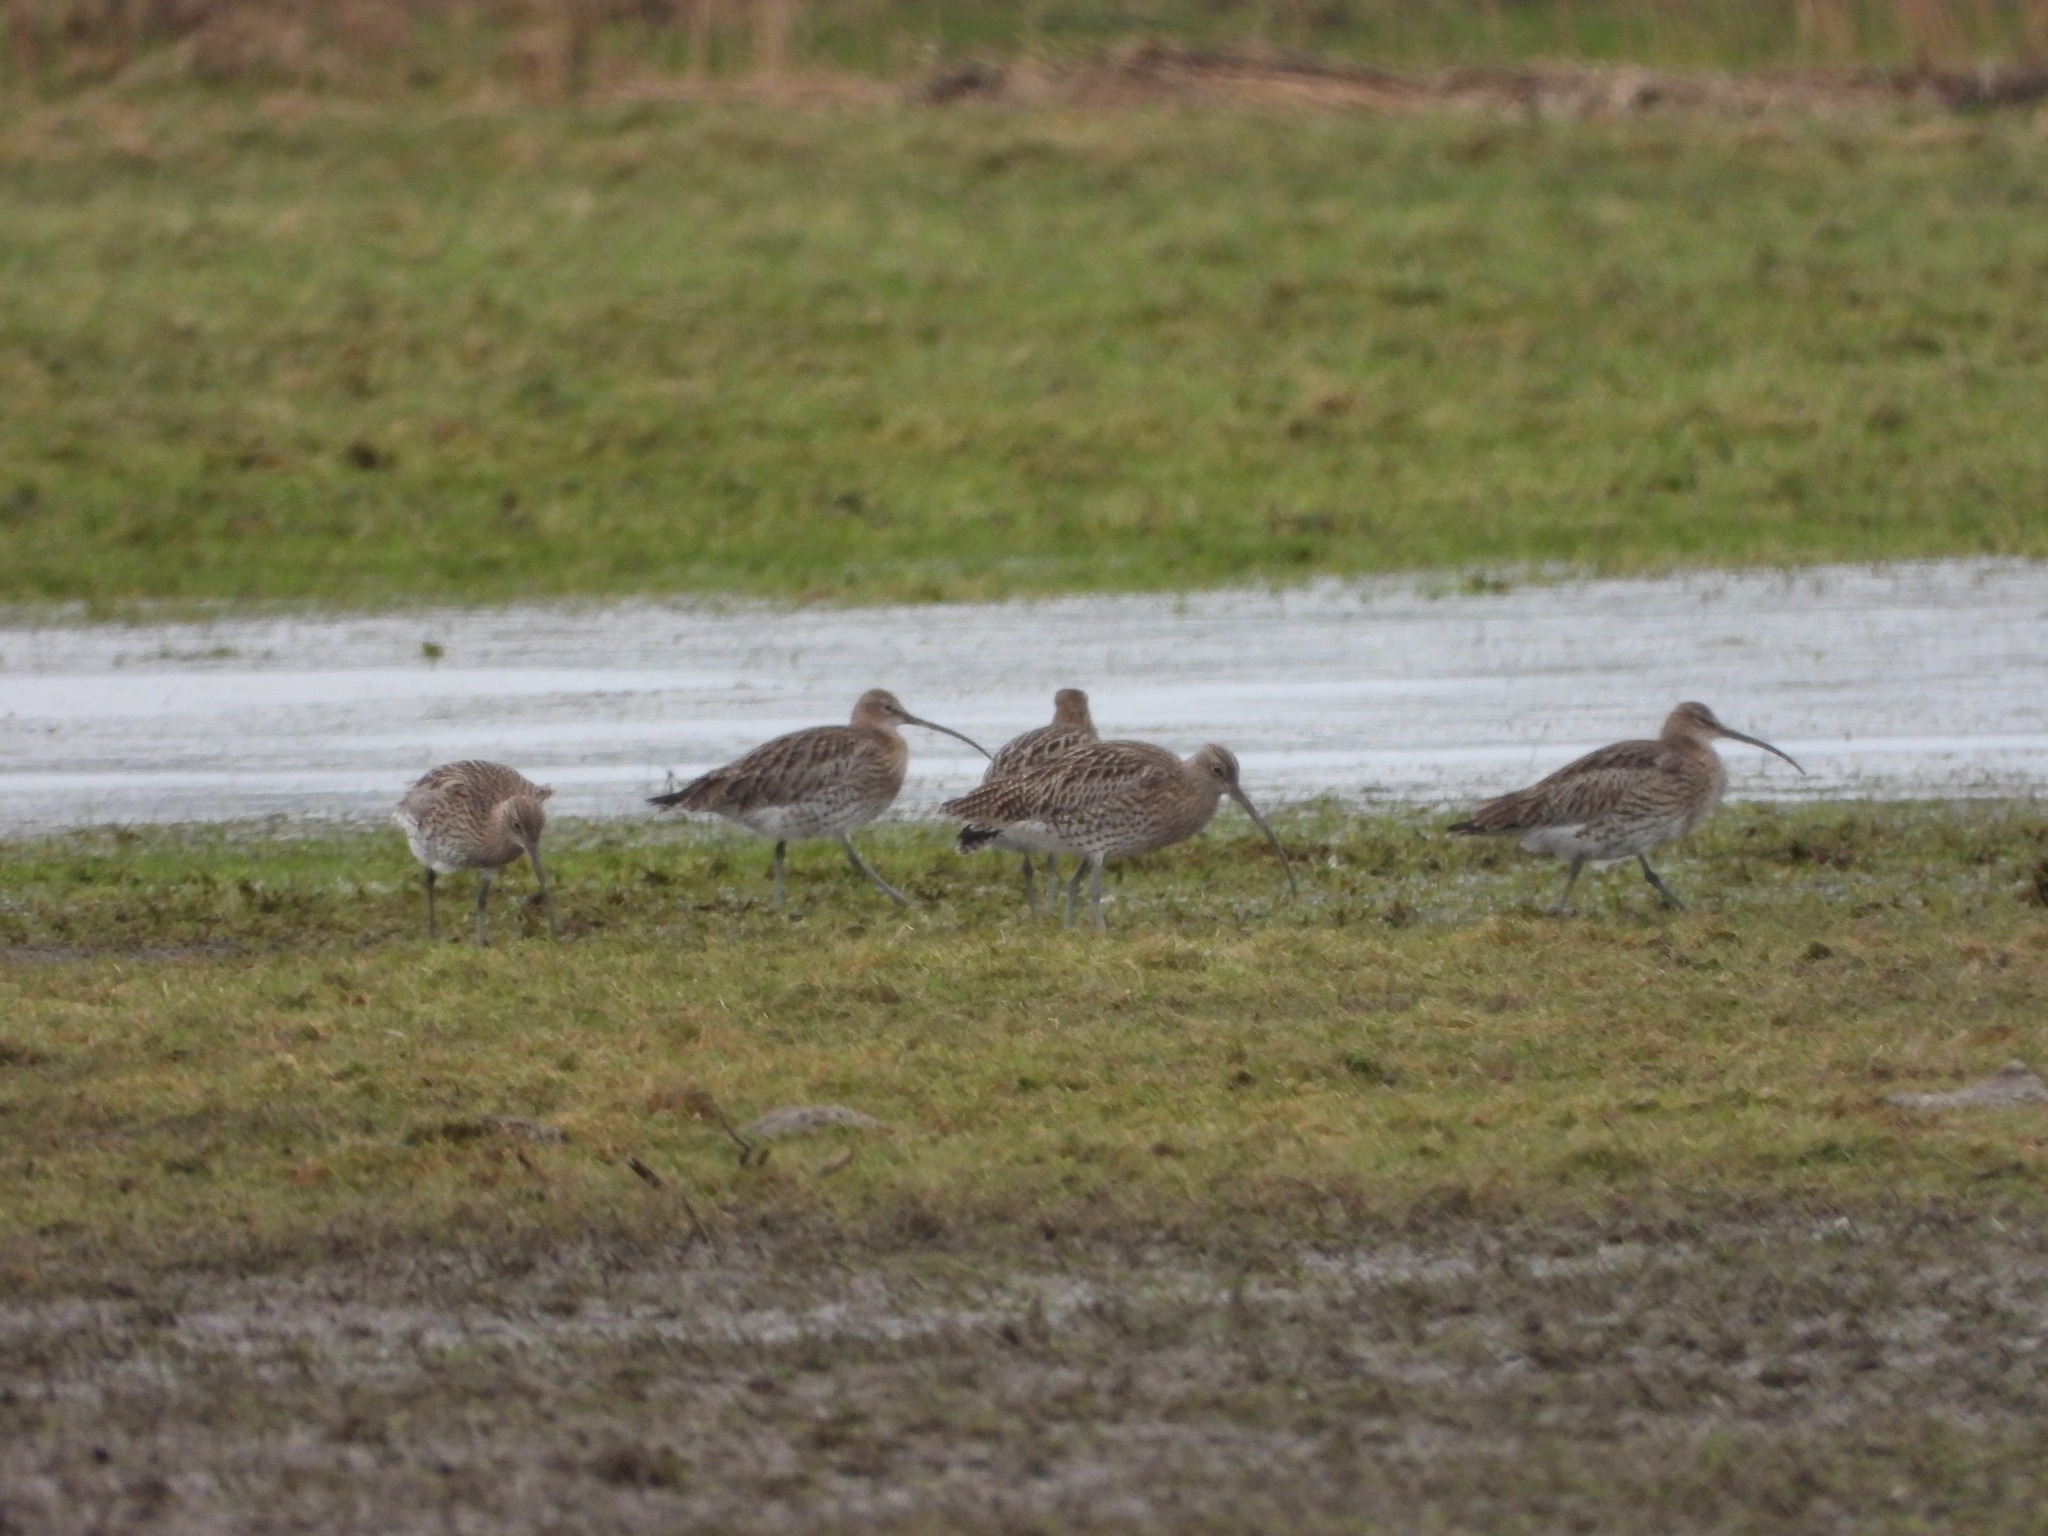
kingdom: Animalia
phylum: Chordata
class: Aves
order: Charadriiformes
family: Scolopacidae
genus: Numenius
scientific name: Numenius arquata
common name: Eurasian curlew
